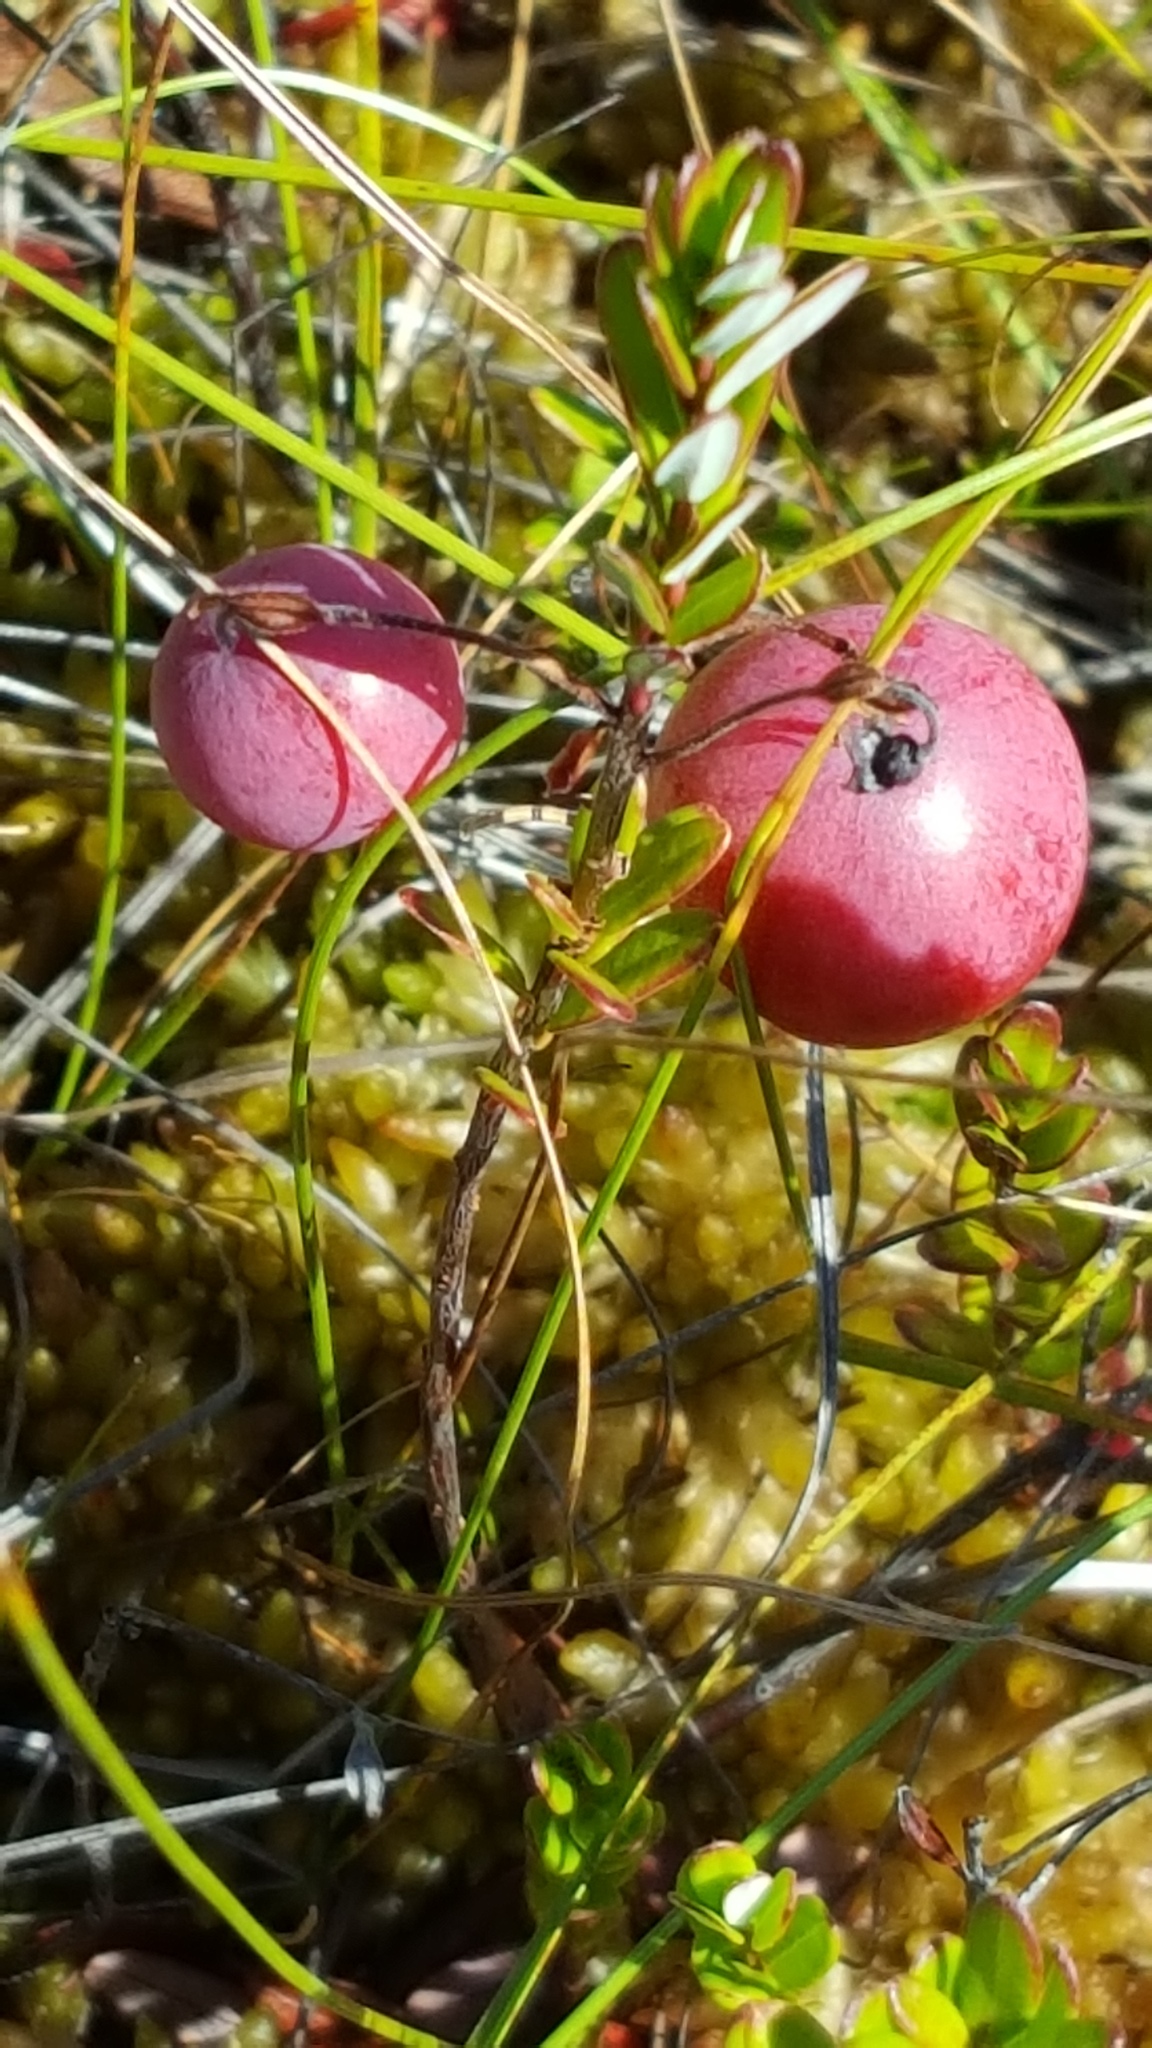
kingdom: Plantae
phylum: Tracheophyta
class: Magnoliopsida
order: Ericales
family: Ericaceae
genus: Vaccinium
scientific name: Vaccinium macrocarpon
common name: American cranberry
